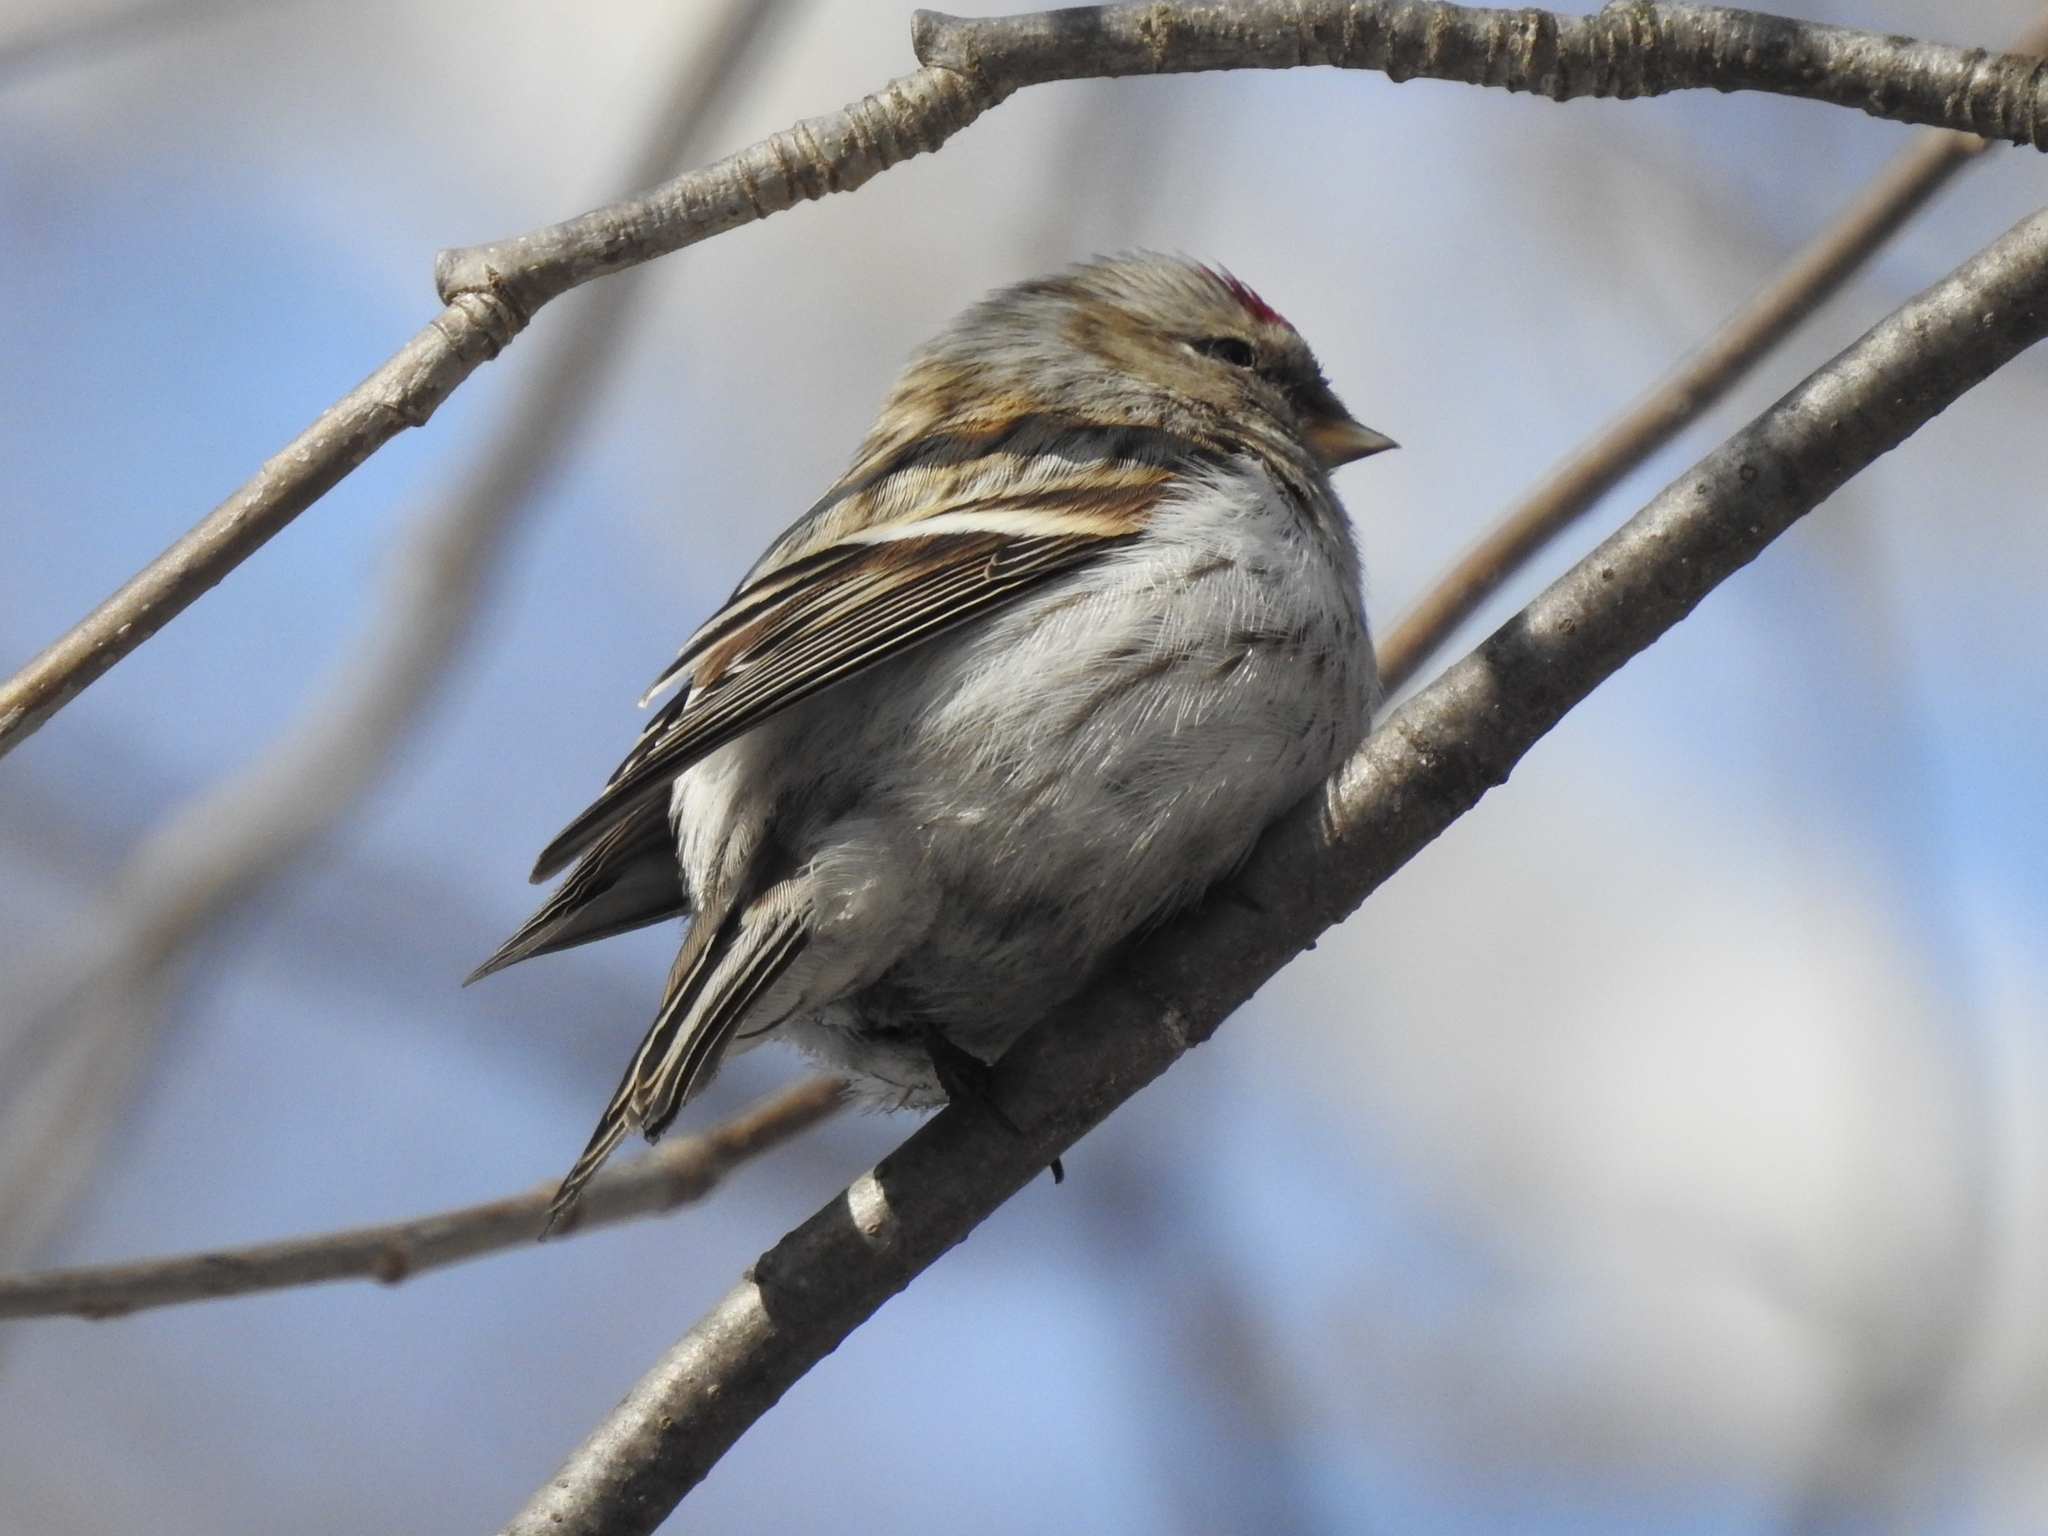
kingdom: Animalia
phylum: Chordata
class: Aves
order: Passeriformes
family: Fringillidae
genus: Acanthis
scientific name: Acanthis flammea
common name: Common redpoll
